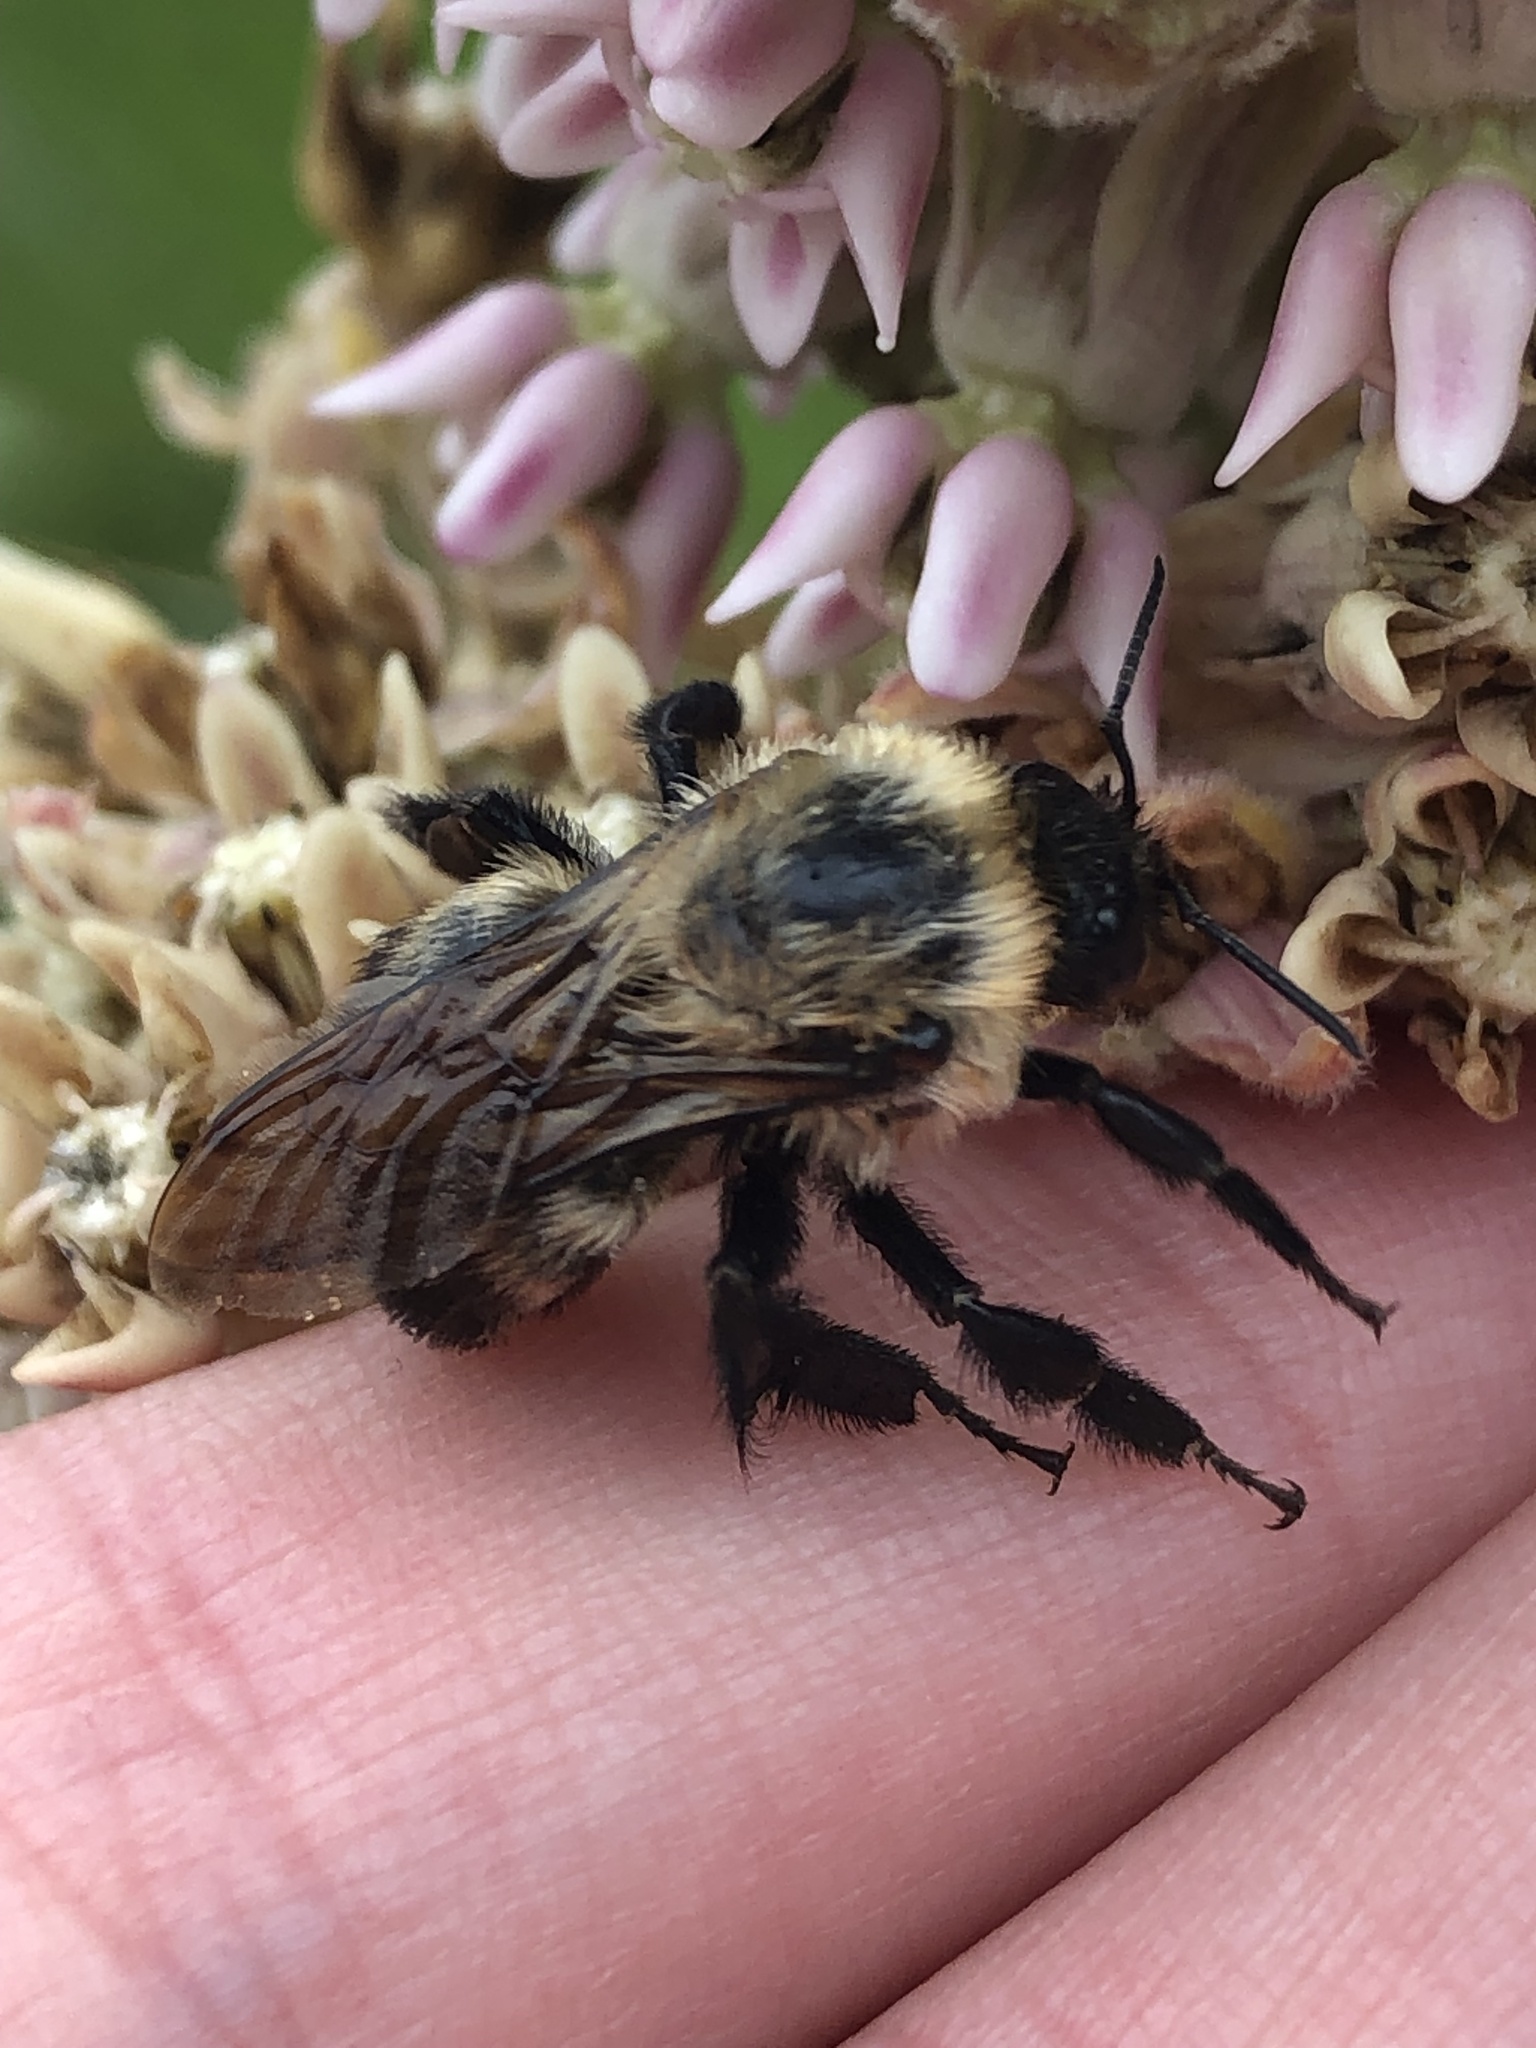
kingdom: Animalia
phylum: Arthropoda
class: Insecta
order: Hymenoptera
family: Apidae
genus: Bombus
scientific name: Bombus griseocollis
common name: Brown-belted bumble bee
